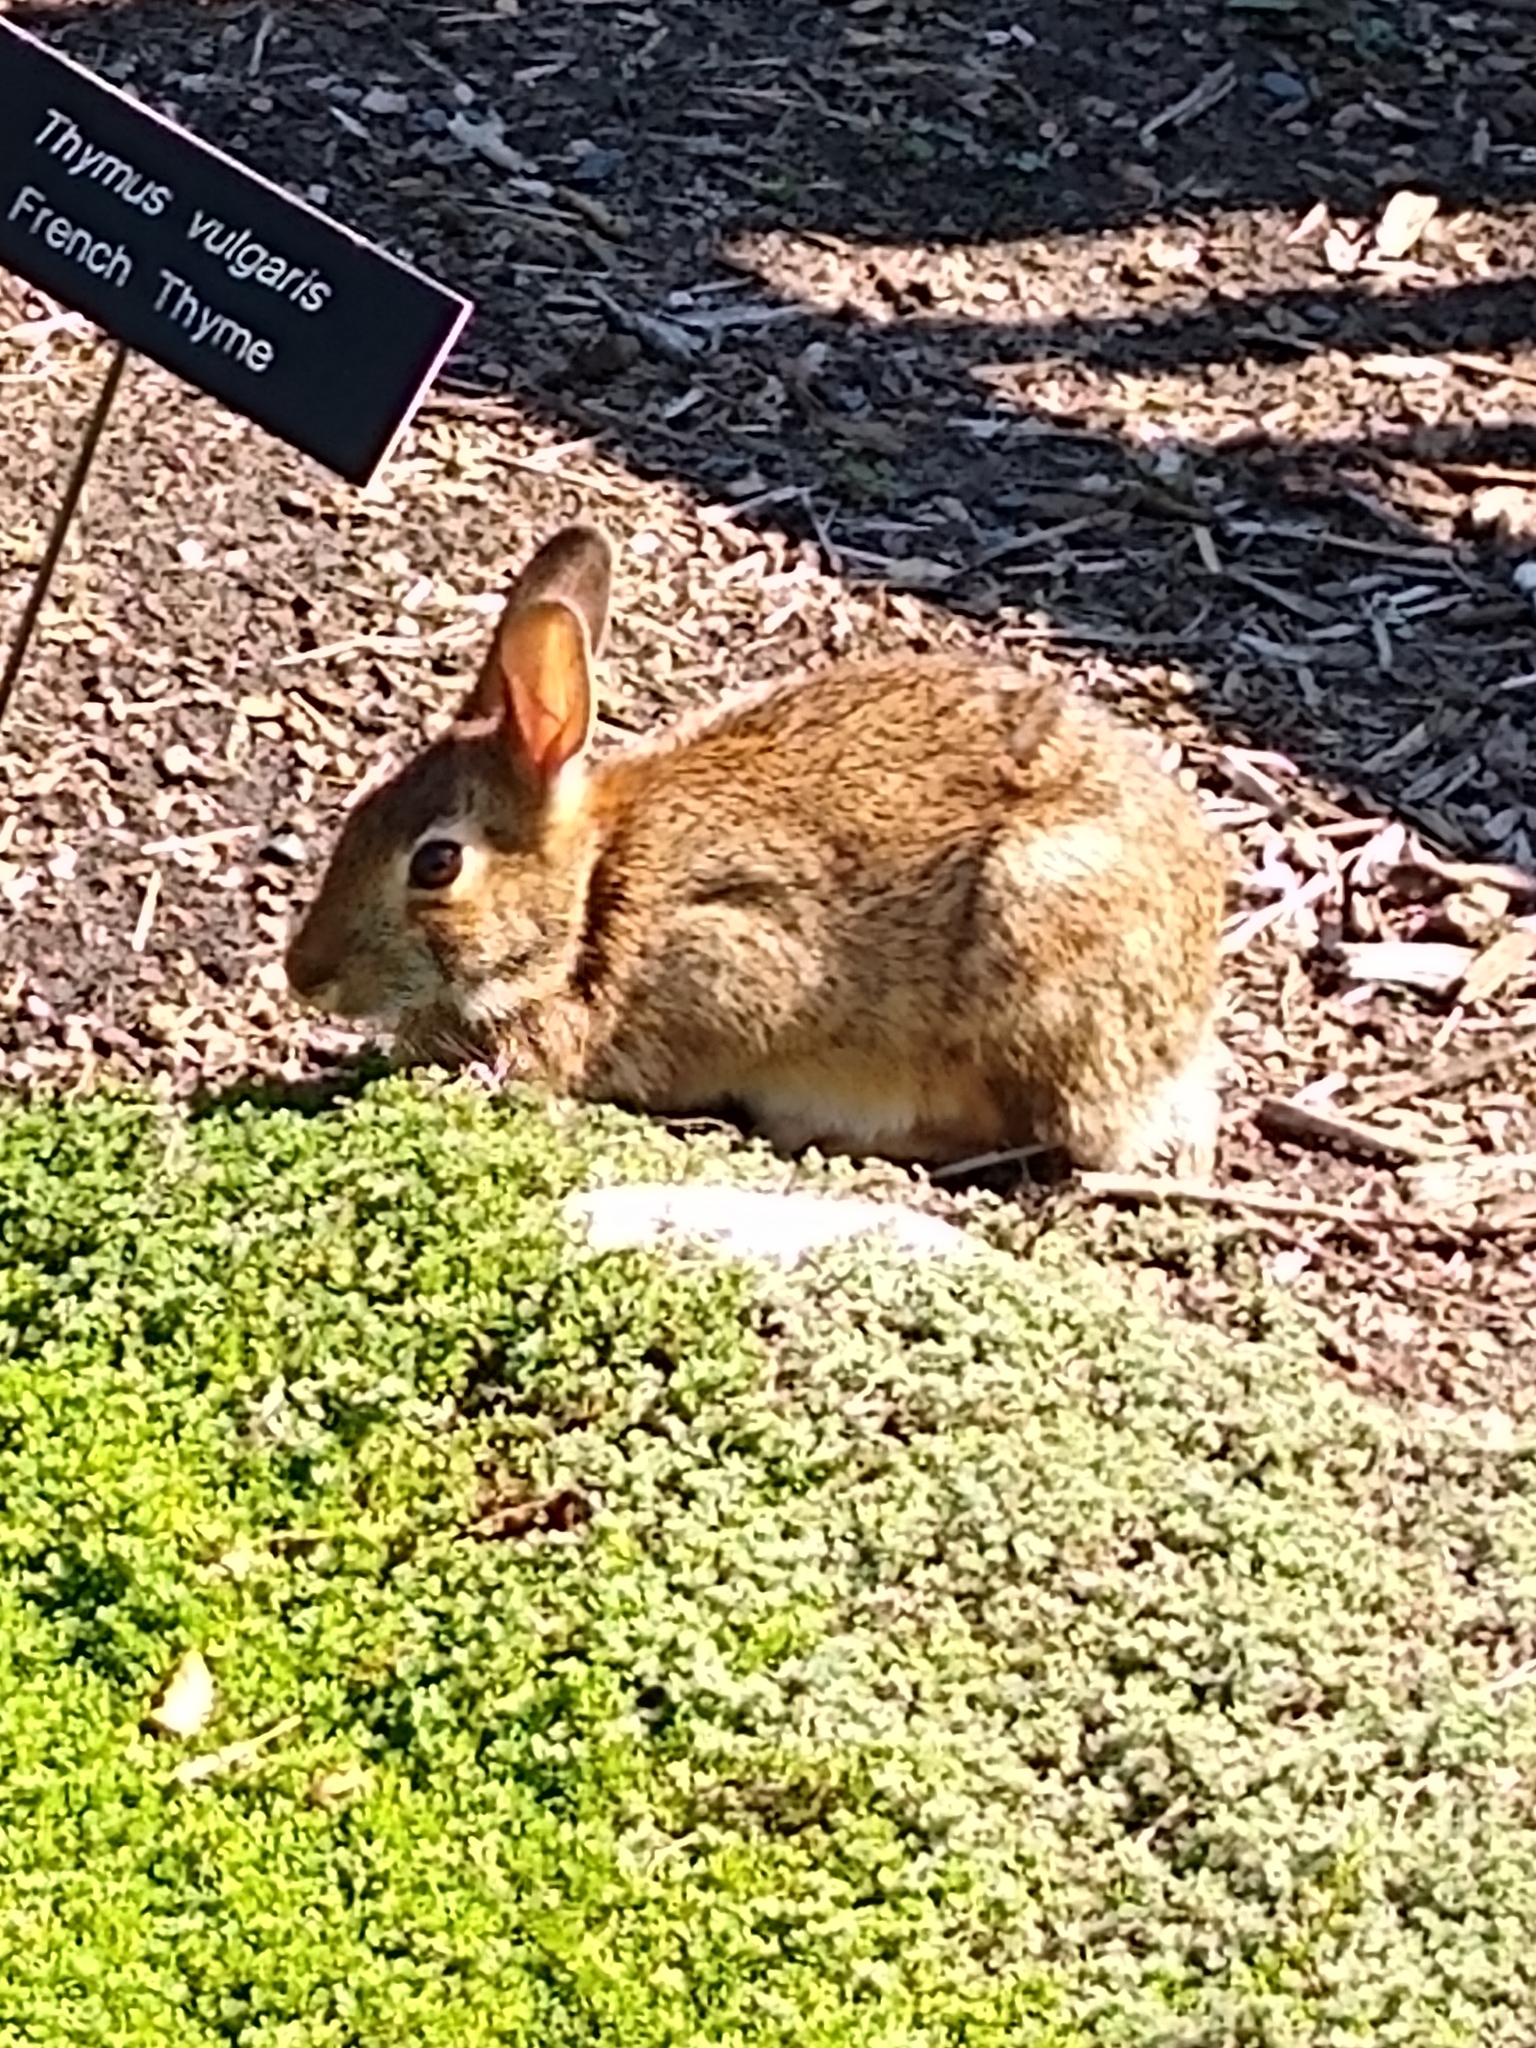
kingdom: Animalia
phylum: Chordata
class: Mammalia
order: Lagomorpha
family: Leporidae
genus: Sylvilagus
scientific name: Sylvilagus floridanus
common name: Eastern cottontail
